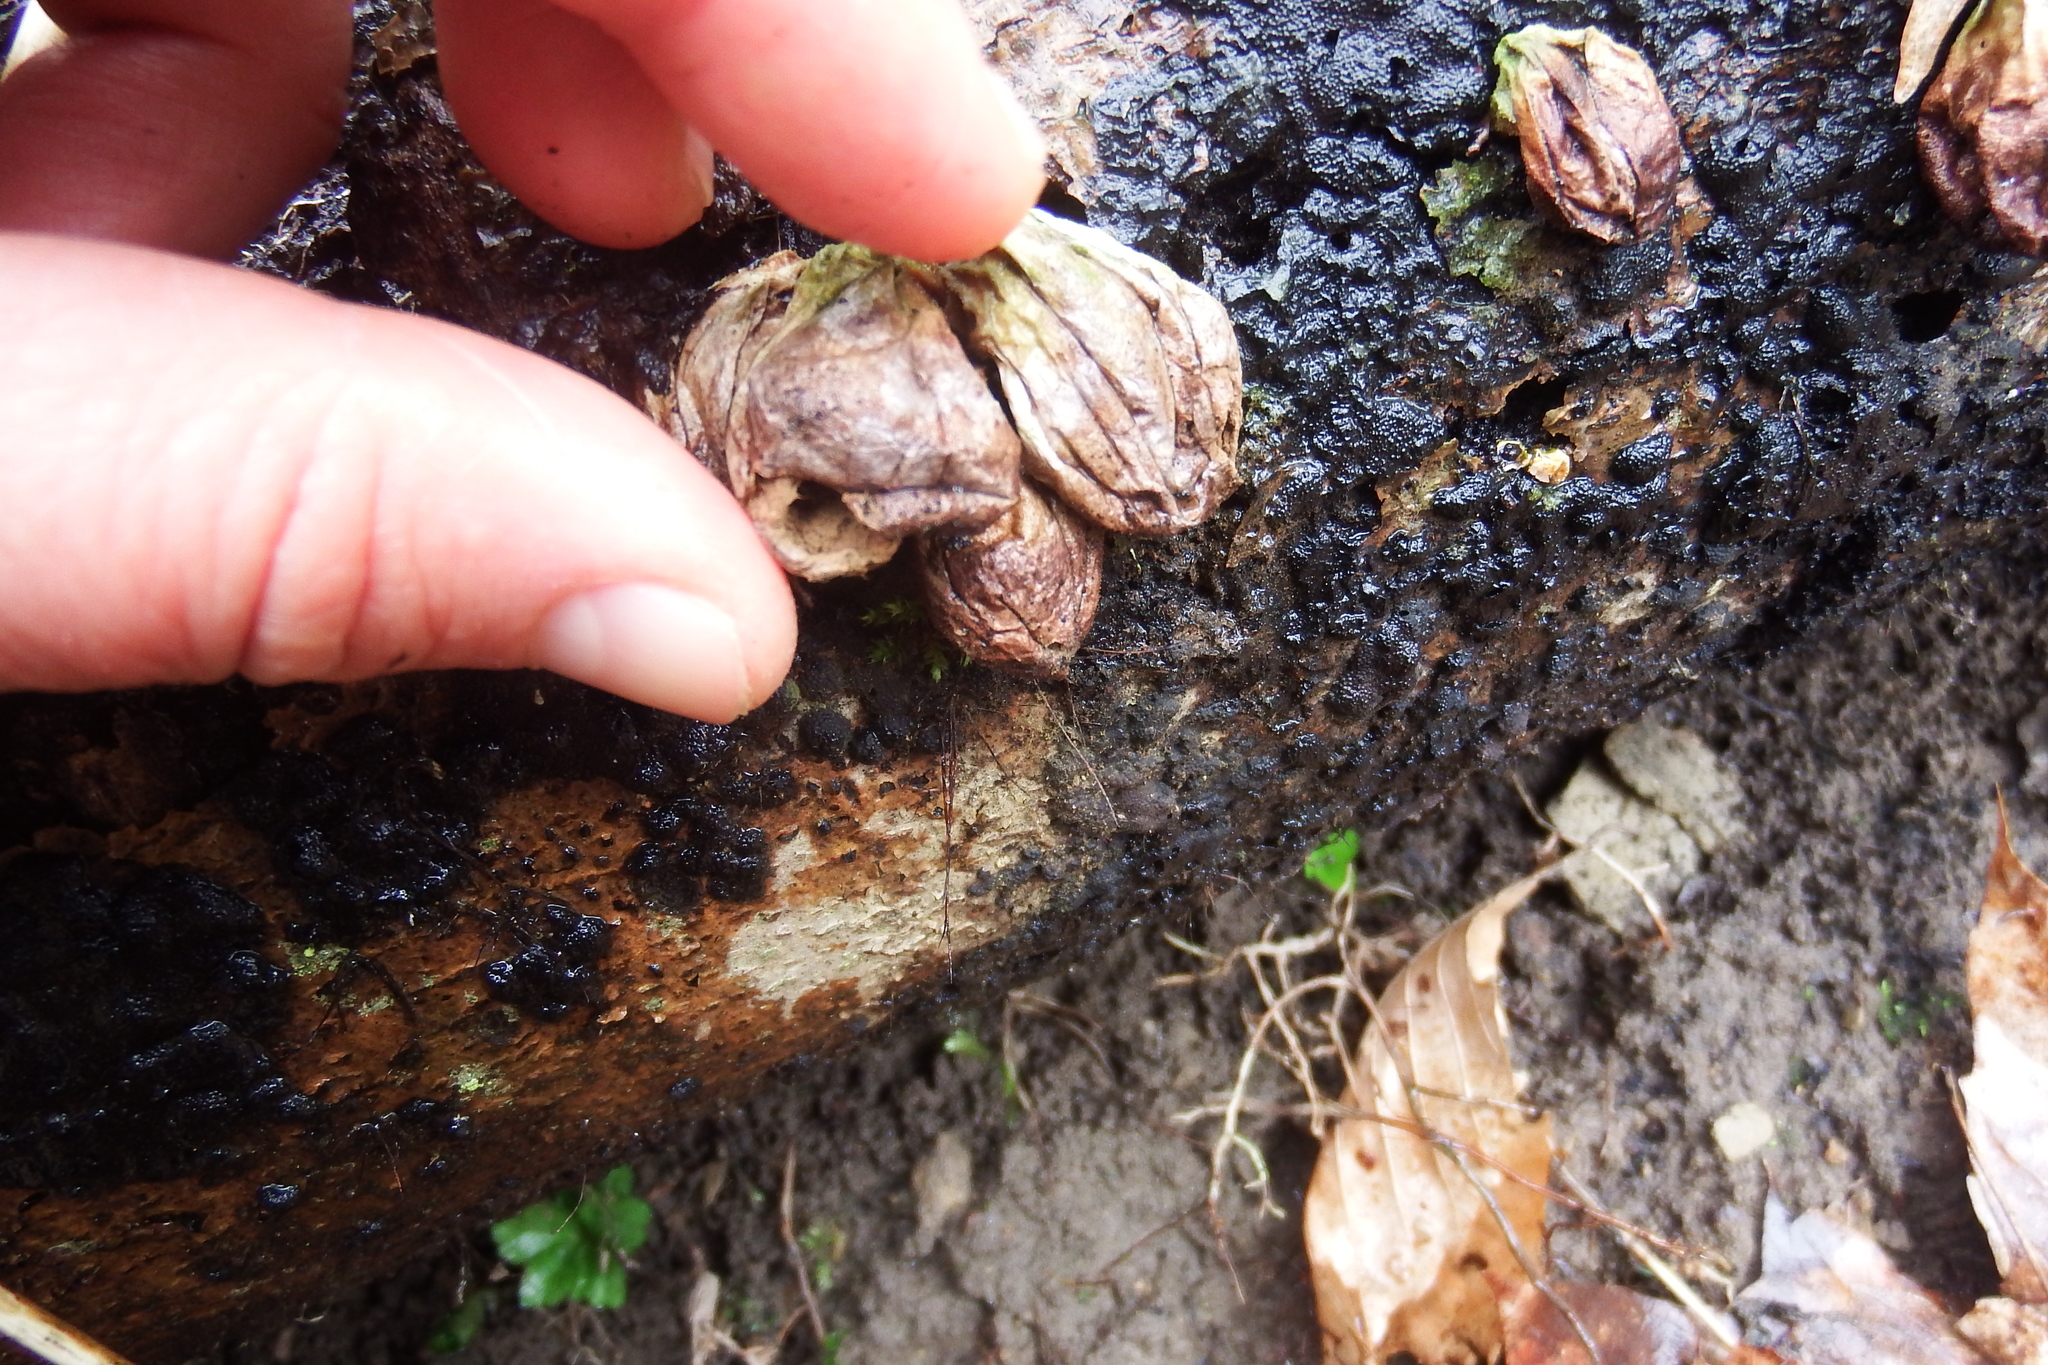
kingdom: Fungi
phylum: Basidiomycota
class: Agaricomycetes
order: Agaricales
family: Lycoperdaceae
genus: Apioperdon
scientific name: Apioperdon pyriforme
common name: Pear-shaped puffball
